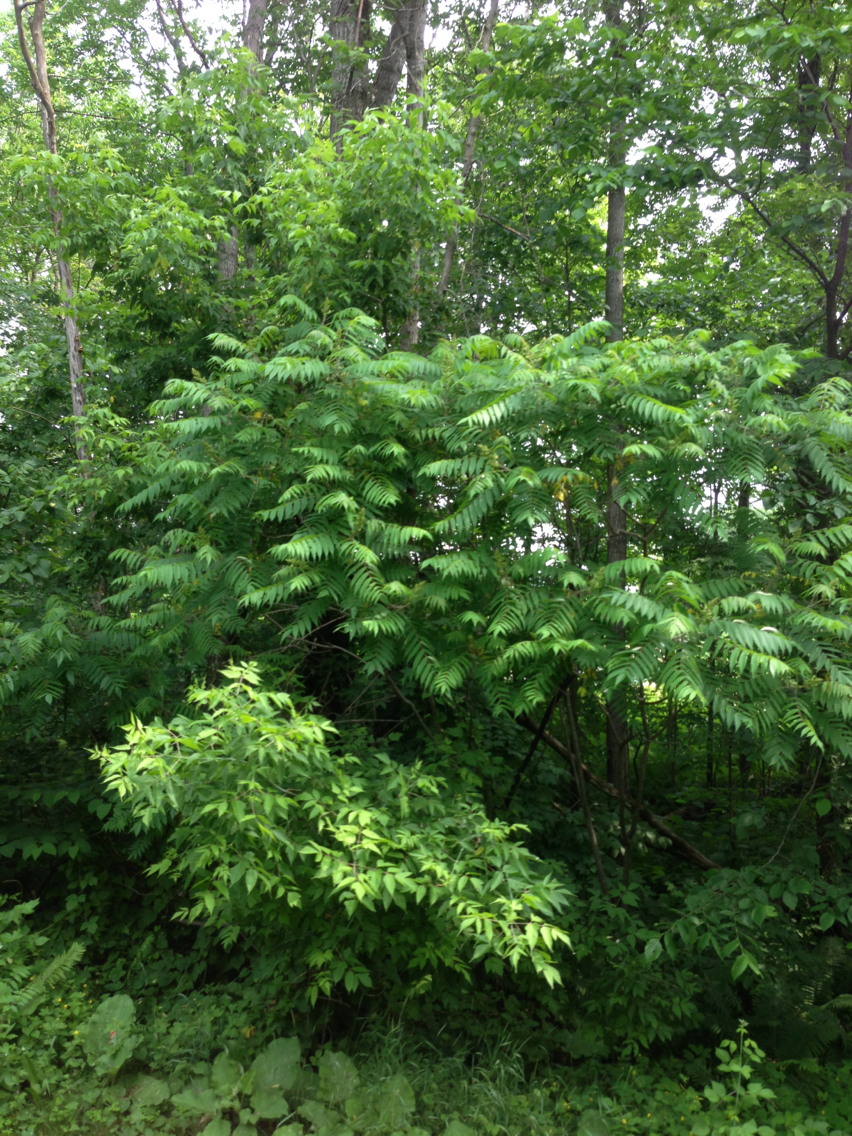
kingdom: Plantae
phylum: Tracheophyta
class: Magnoliopsida
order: Sapindales
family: Anacardiaceae
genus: Rhus
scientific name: Rhus typhina
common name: Staghorn sumac
